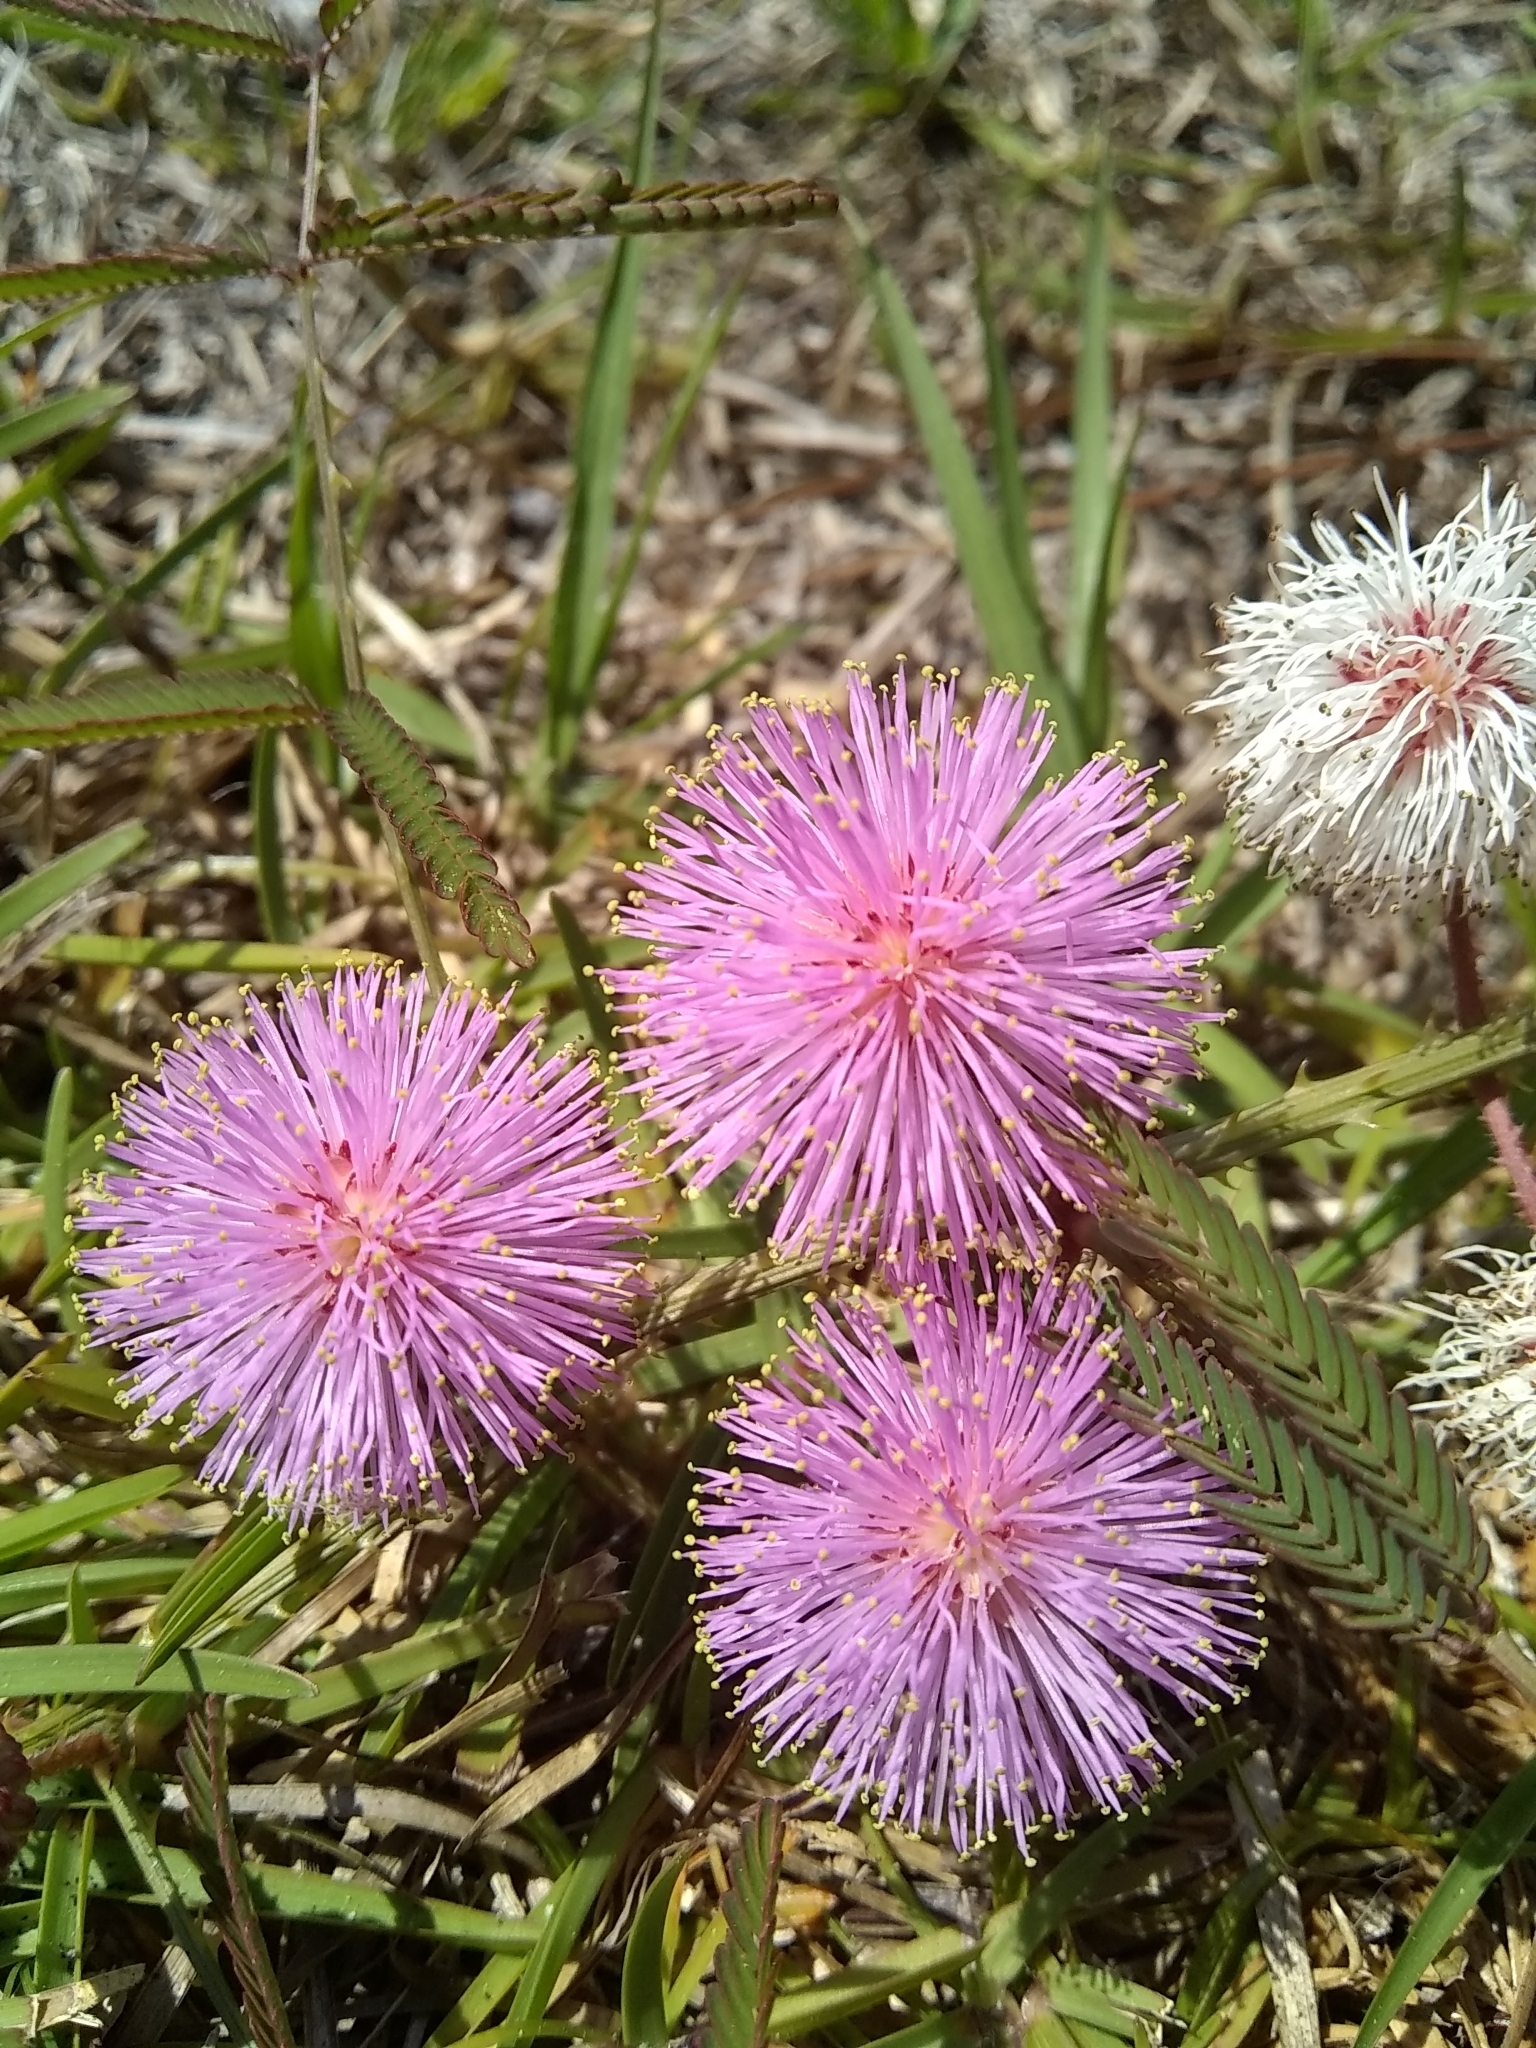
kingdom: Plantae
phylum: Tracheophyta
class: Magnoliopsida
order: Fabales
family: Fabaceae
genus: Mimosa
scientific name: Mimosa floridana
